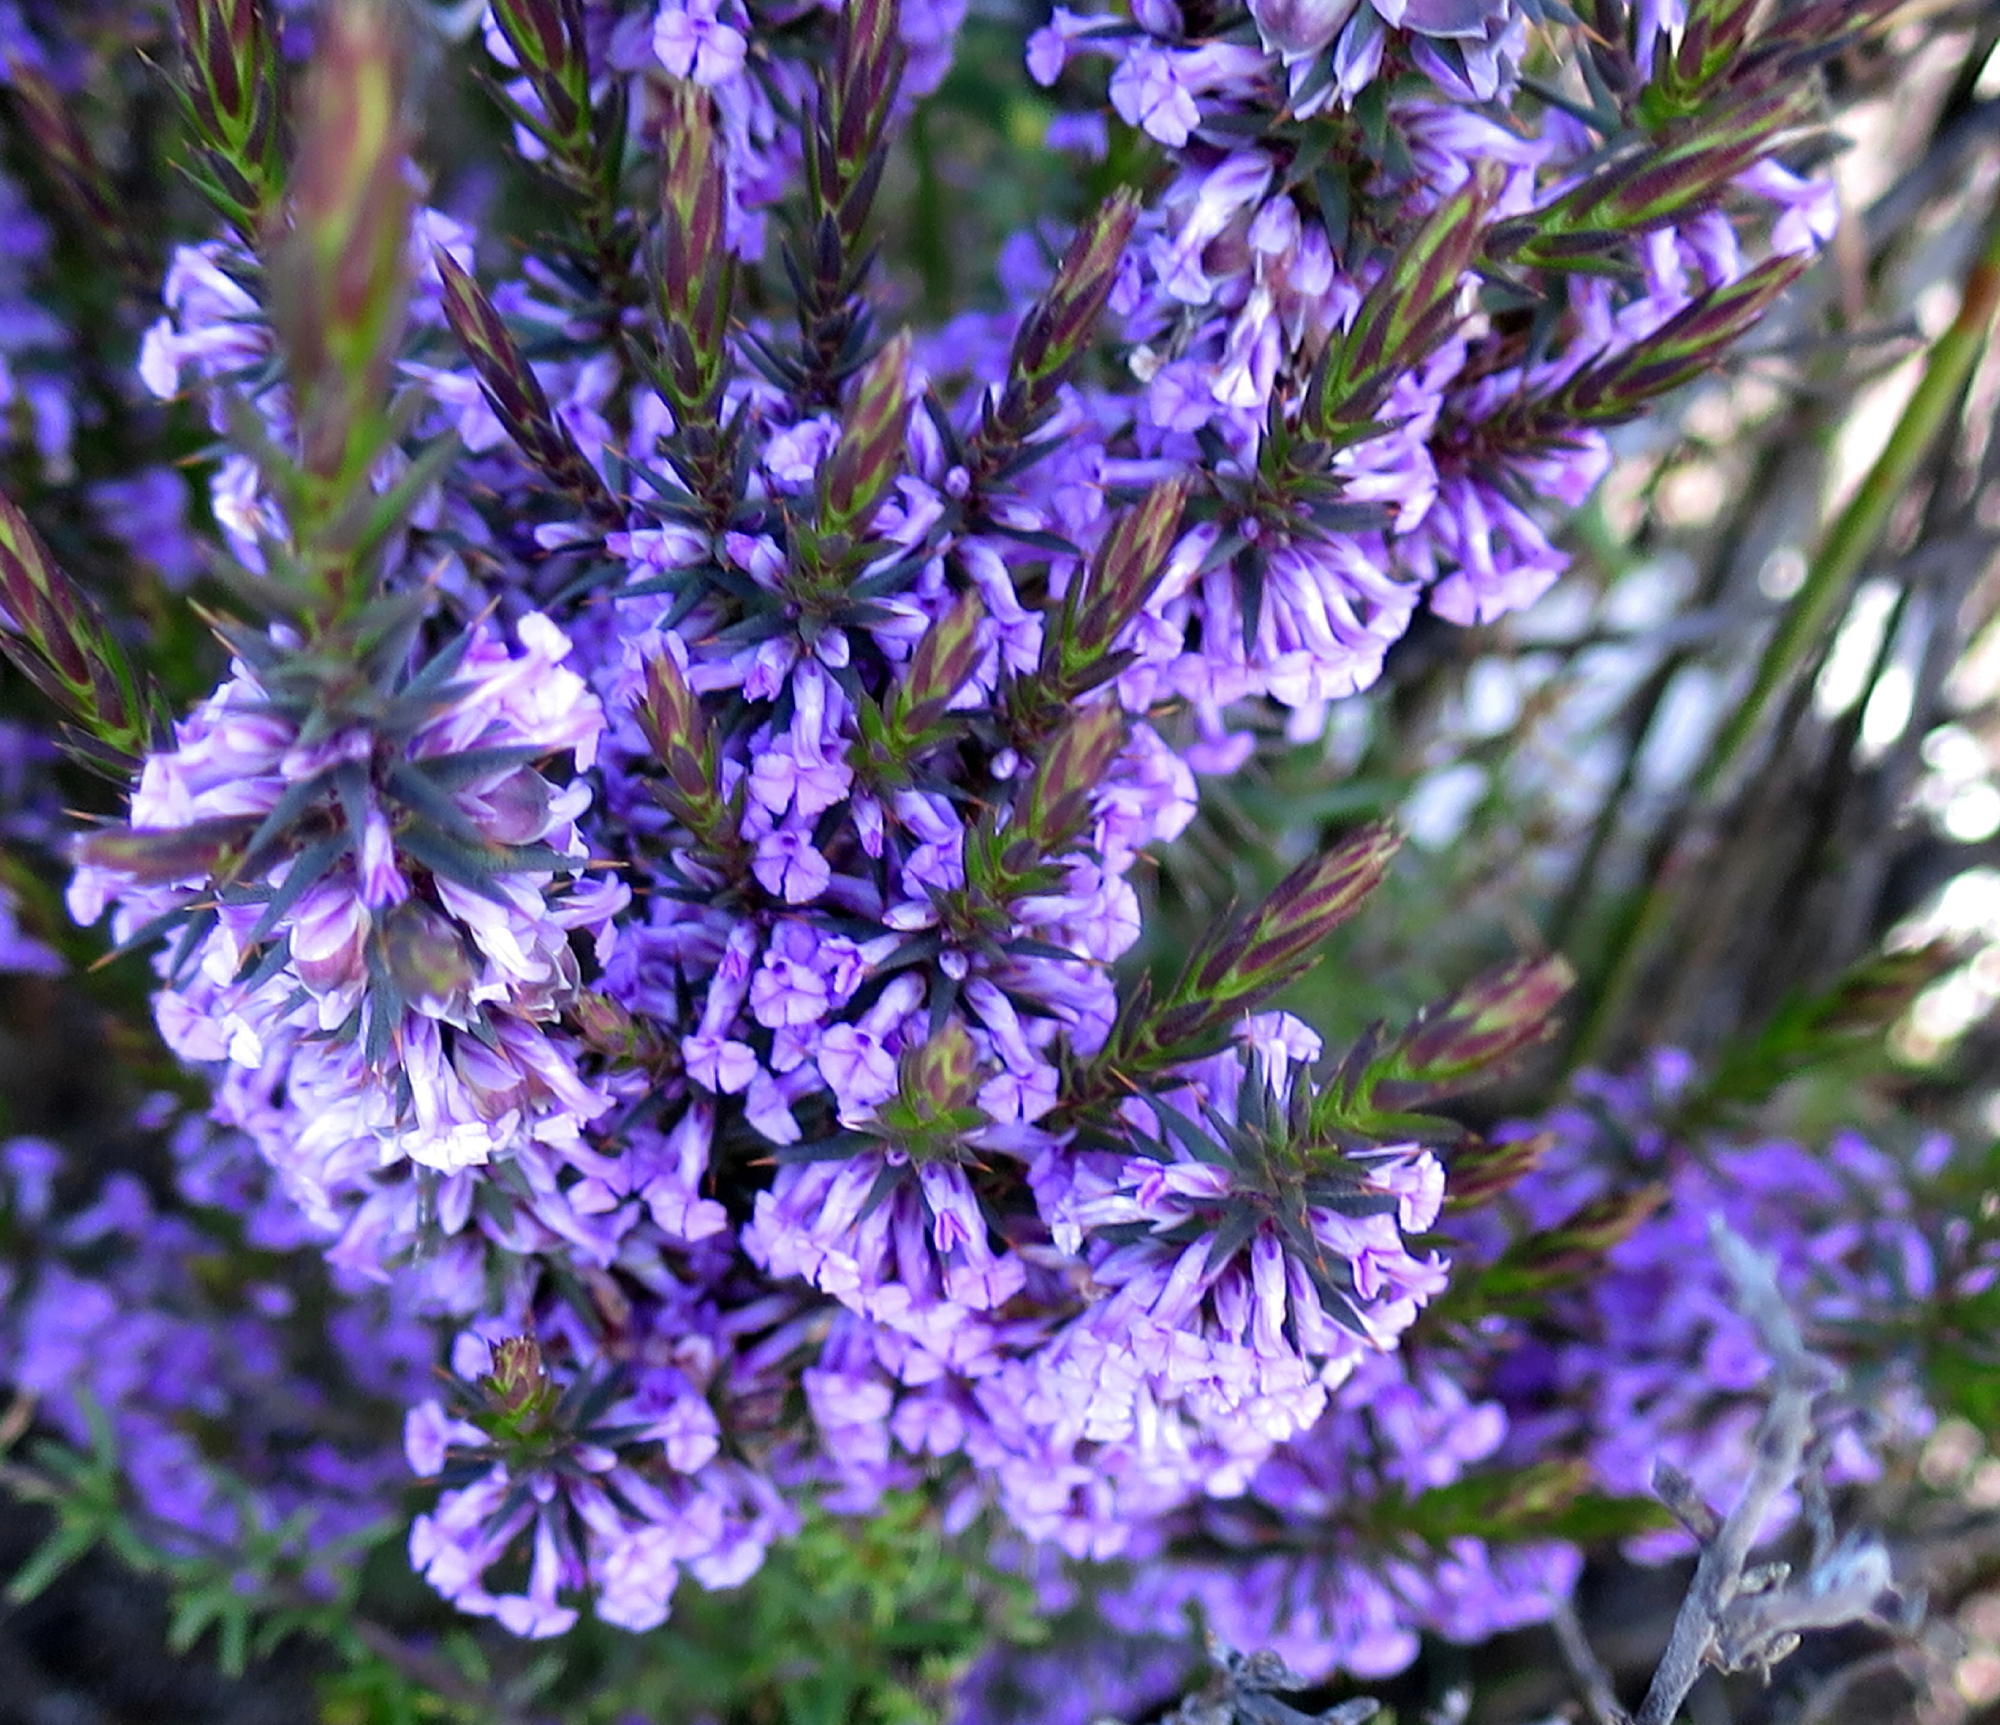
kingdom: Plantae
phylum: Tracheophyta
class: Magnoliopsida
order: Fabales
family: Polygalaceae
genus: Muraltia
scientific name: Muraltia juniperifolia
